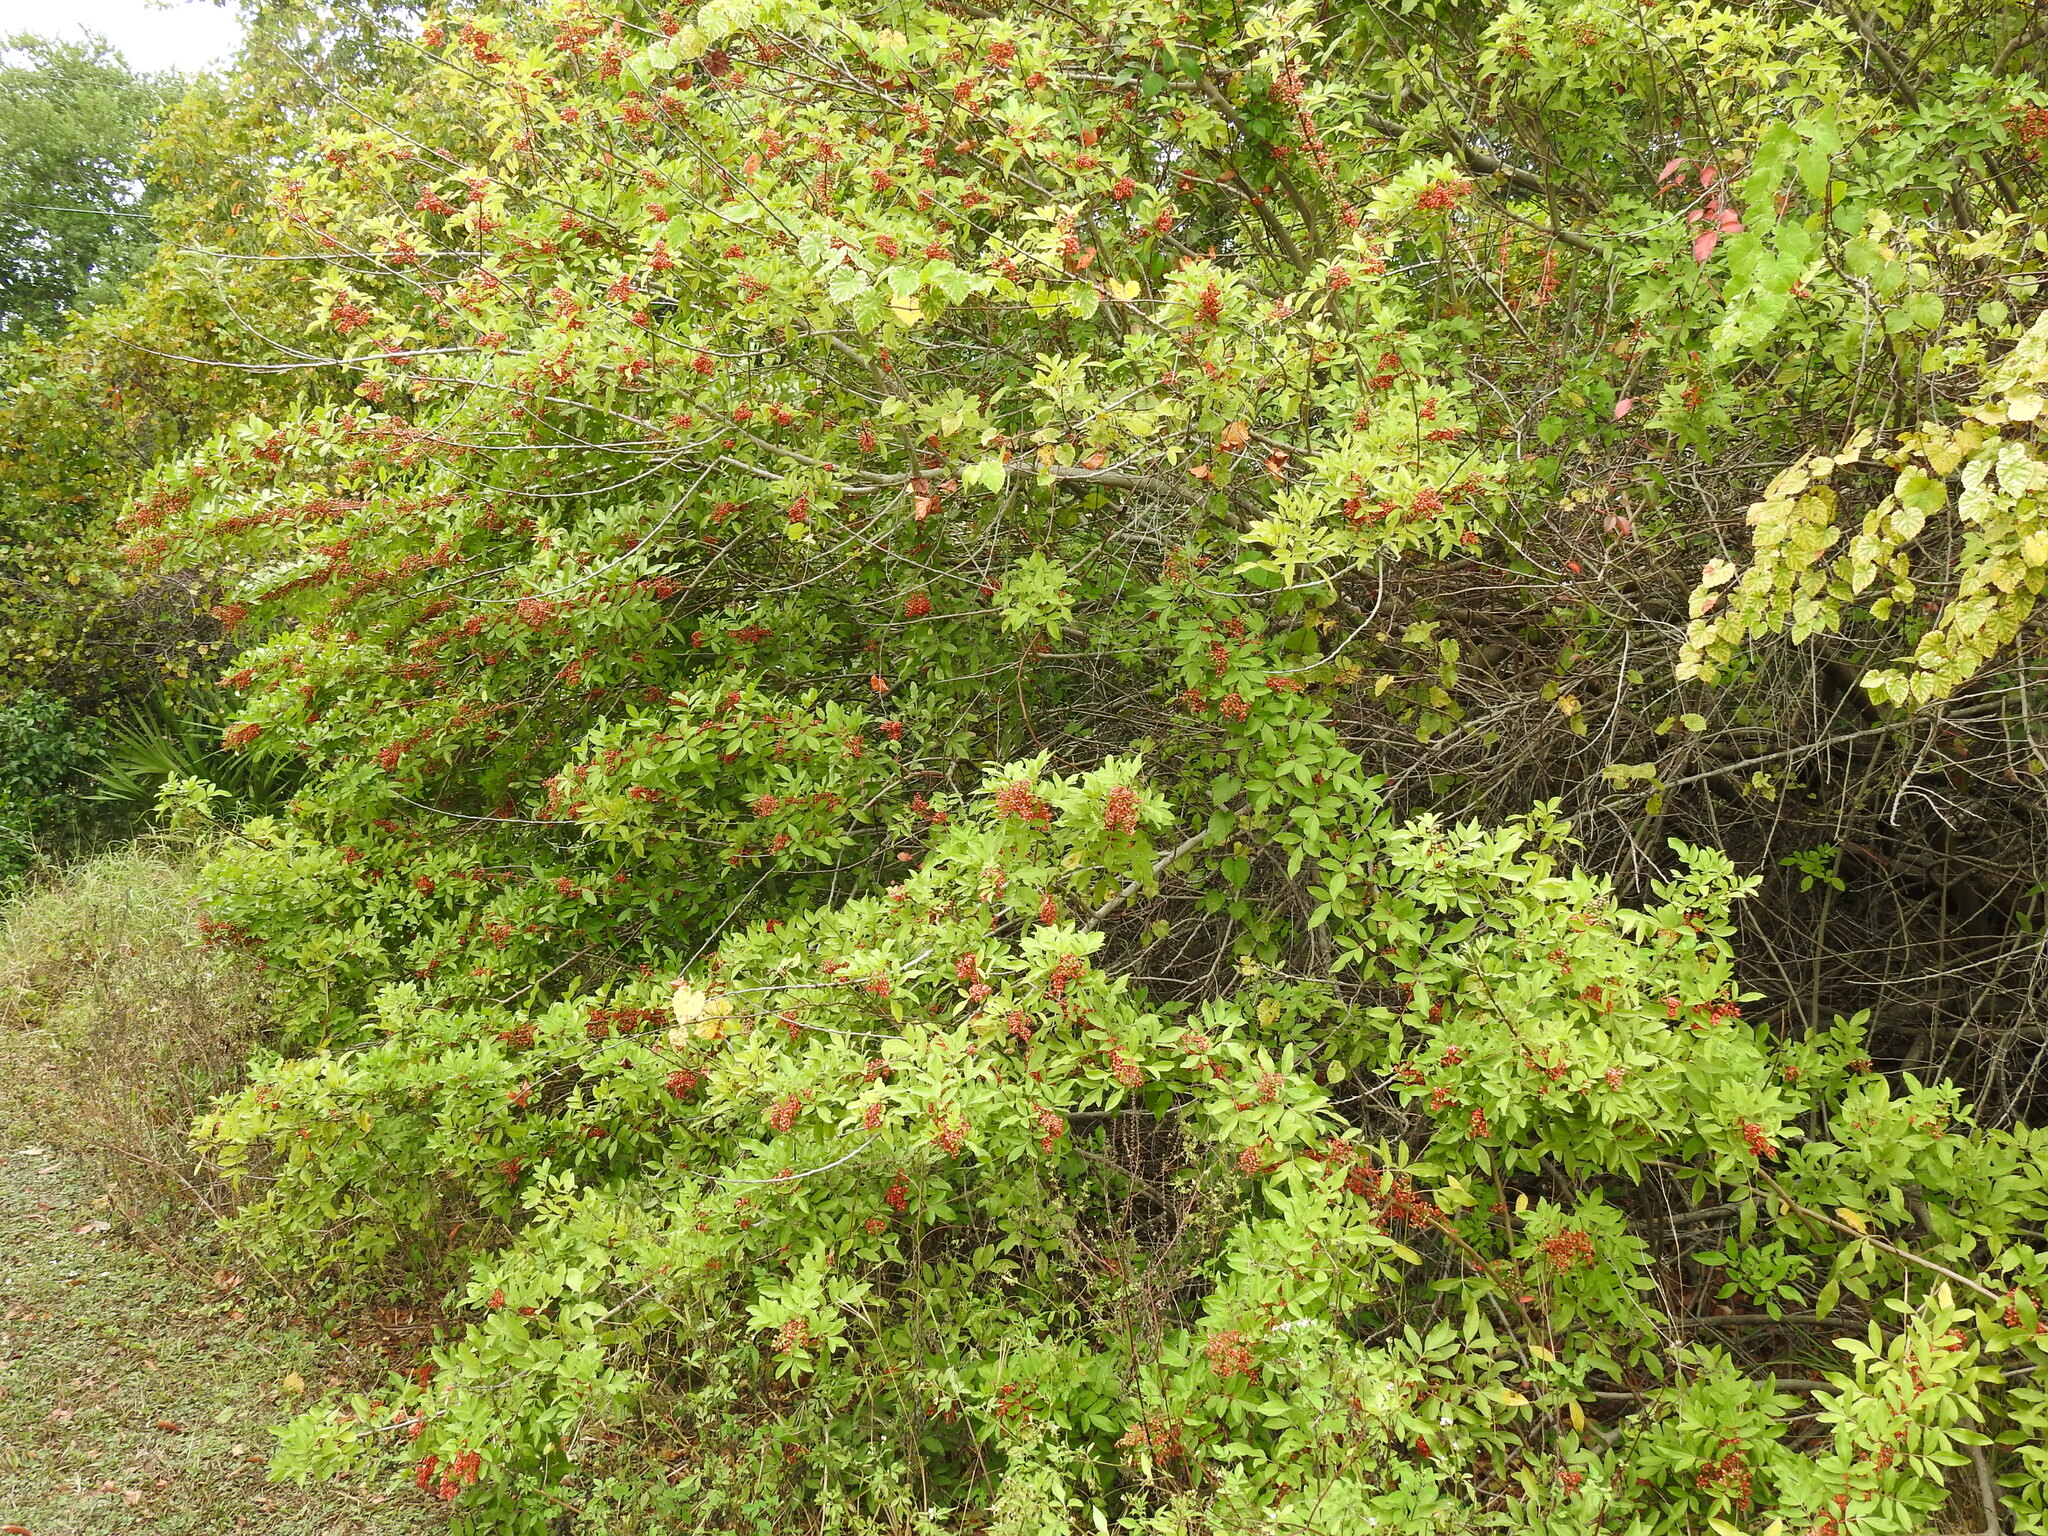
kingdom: Plantae
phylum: Tracheophyta
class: Magnoliopsida
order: Sapindales
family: Anacardiaceae
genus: Schinus
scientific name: Schinus terebinthifolia
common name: Brazilian peppertree
